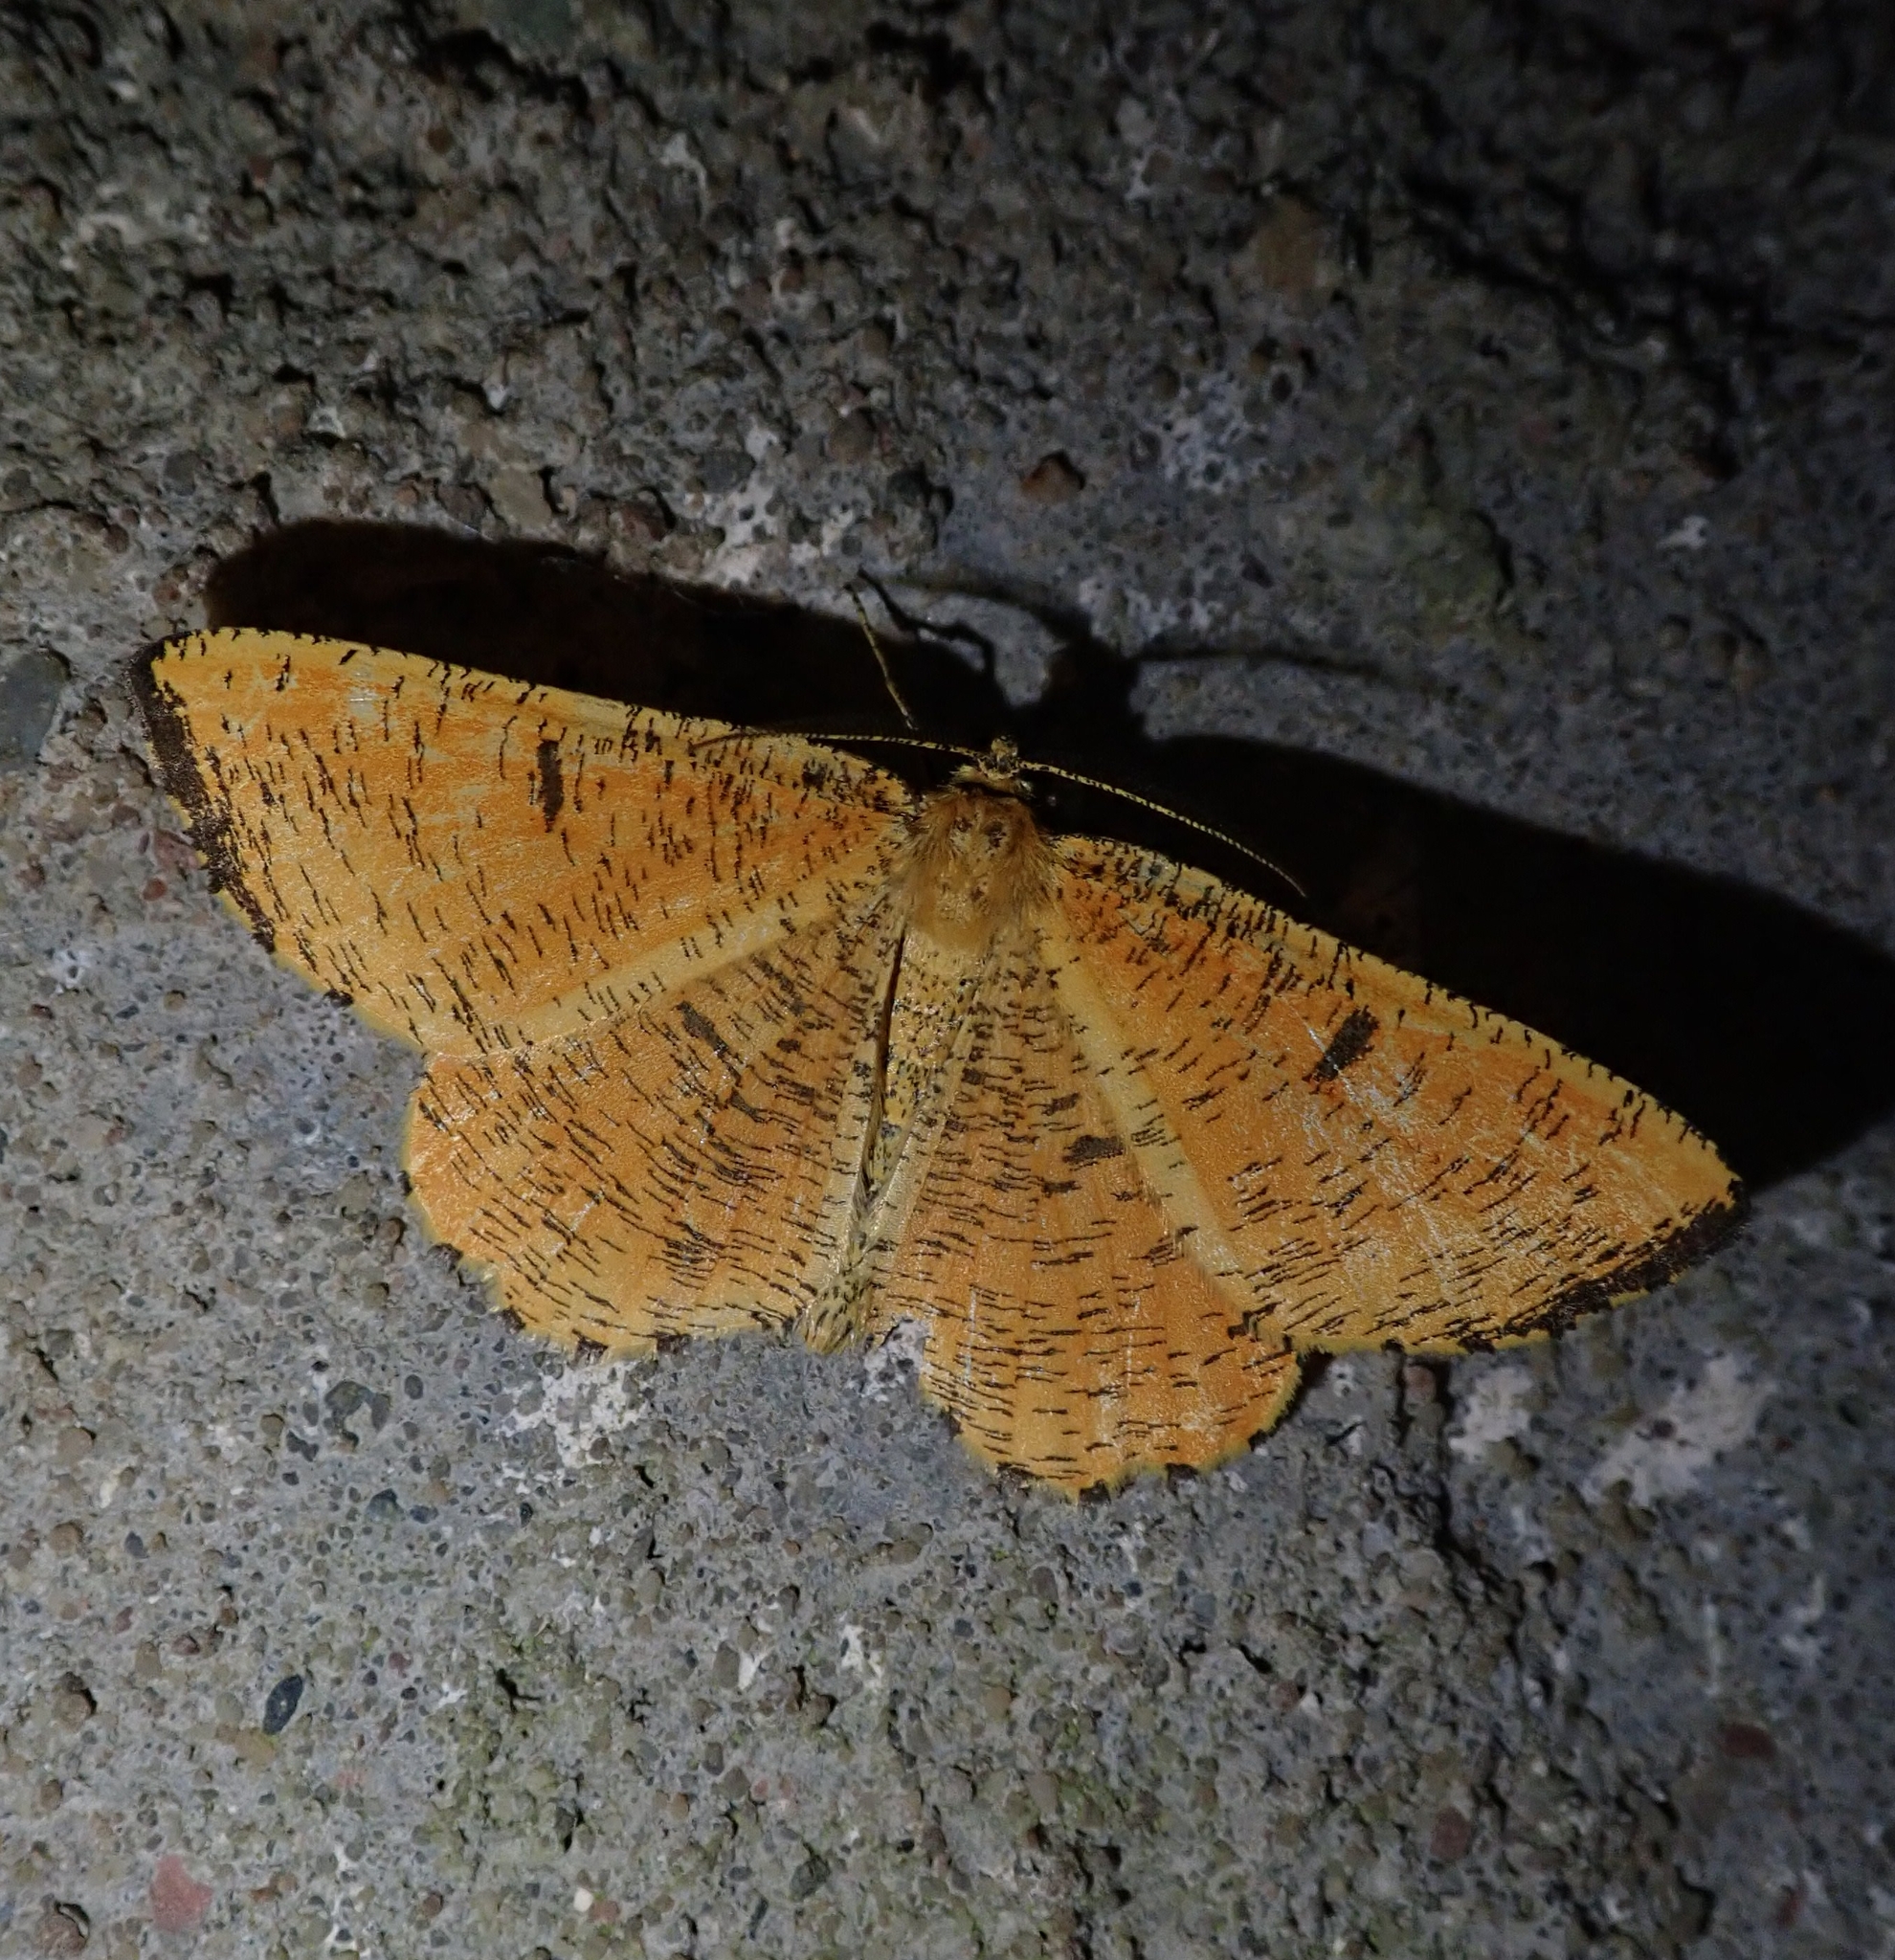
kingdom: Animalia
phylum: Arthropoda
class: Insecta
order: Lepidoptera
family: Geometridae
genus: Pseudopanthera
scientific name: Pseudopanthera macularia
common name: Speckled yellow
